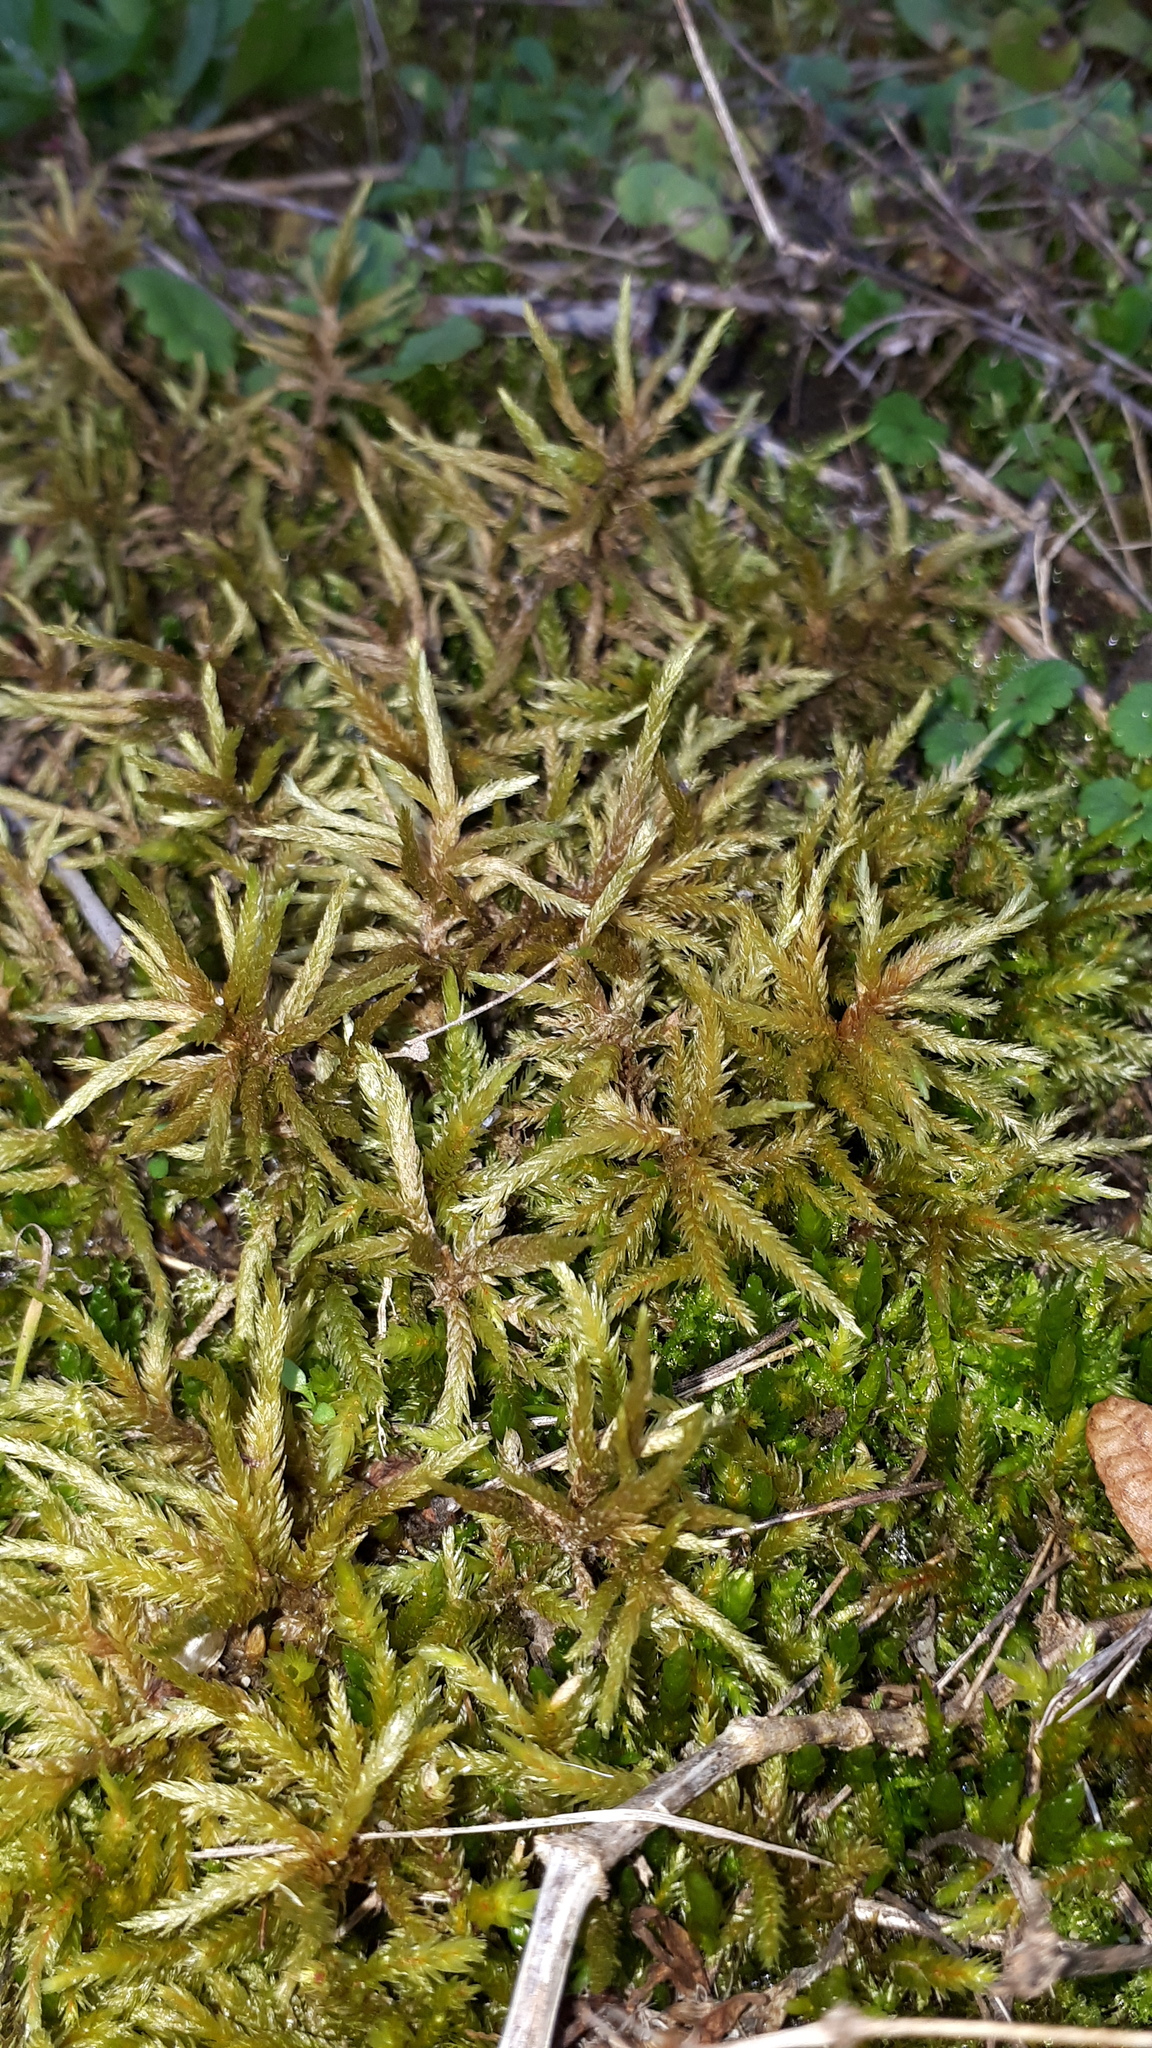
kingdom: Plantae
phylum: Bryophyta
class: Bryopsida
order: Hypnales
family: Climaciaceae
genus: Climacium
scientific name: Climacium dendroides
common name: Northern tree moss
